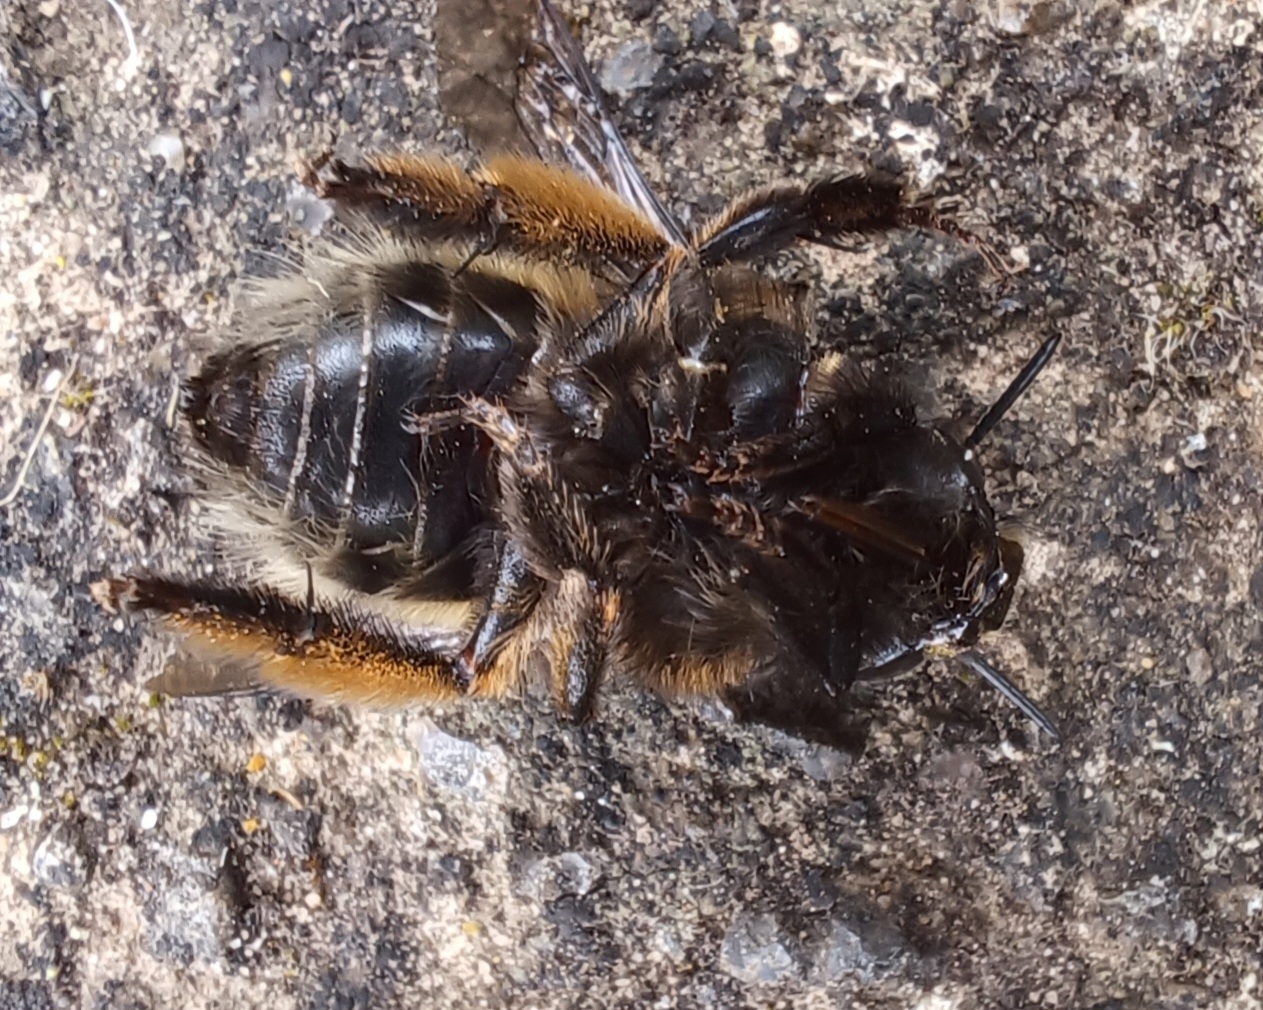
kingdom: Animalia
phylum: Arthropoda
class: Insecta
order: Hymenoptera
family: Apidae
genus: Anthophora
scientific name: Anthophora plumipes
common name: Hairy-footed flower bee
